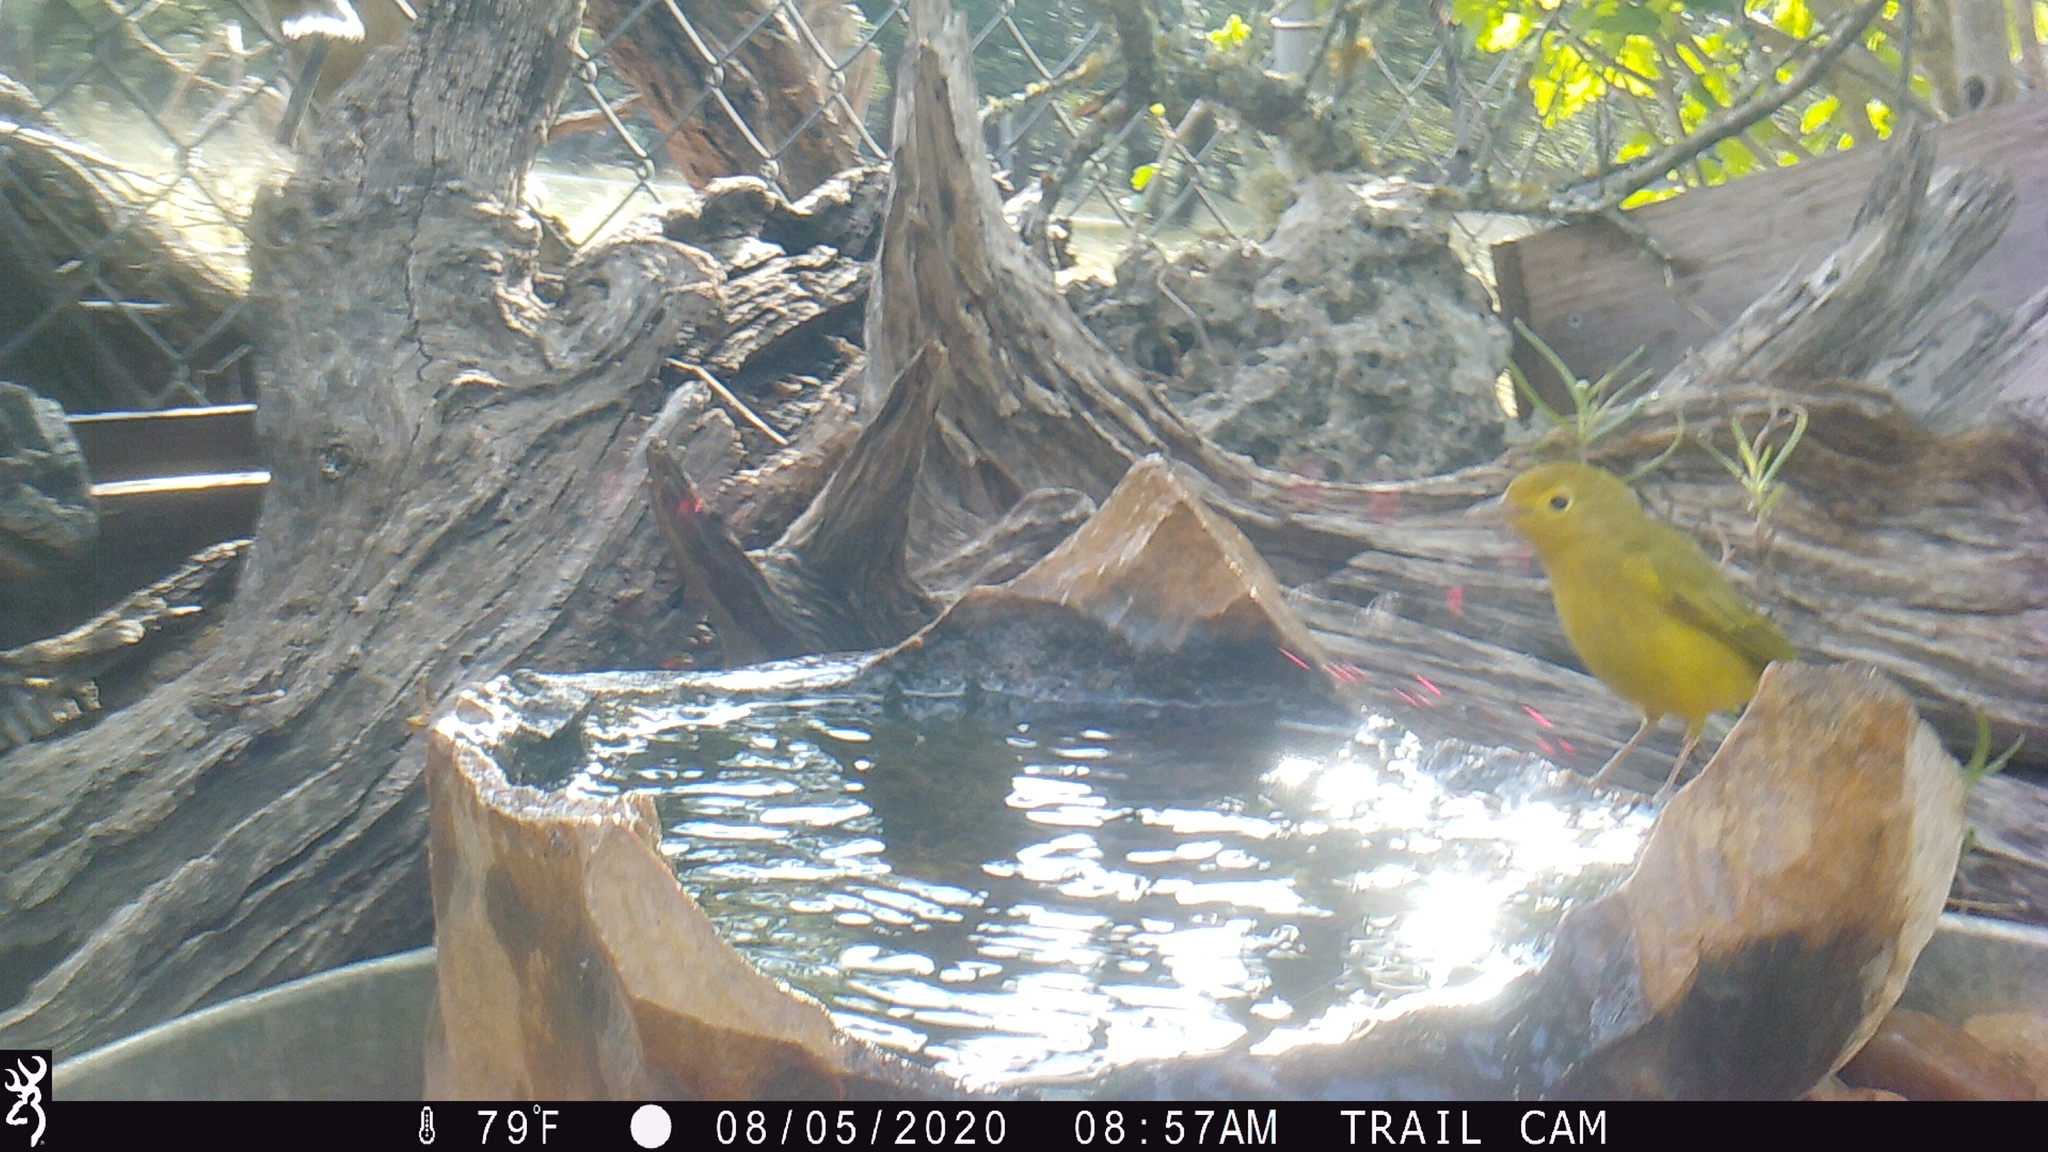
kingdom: Animalia
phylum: Chordata
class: Aves
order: Passeriformes
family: Parulidae
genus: Setophaga
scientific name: Setophaga petechia
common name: Yellow warbler
